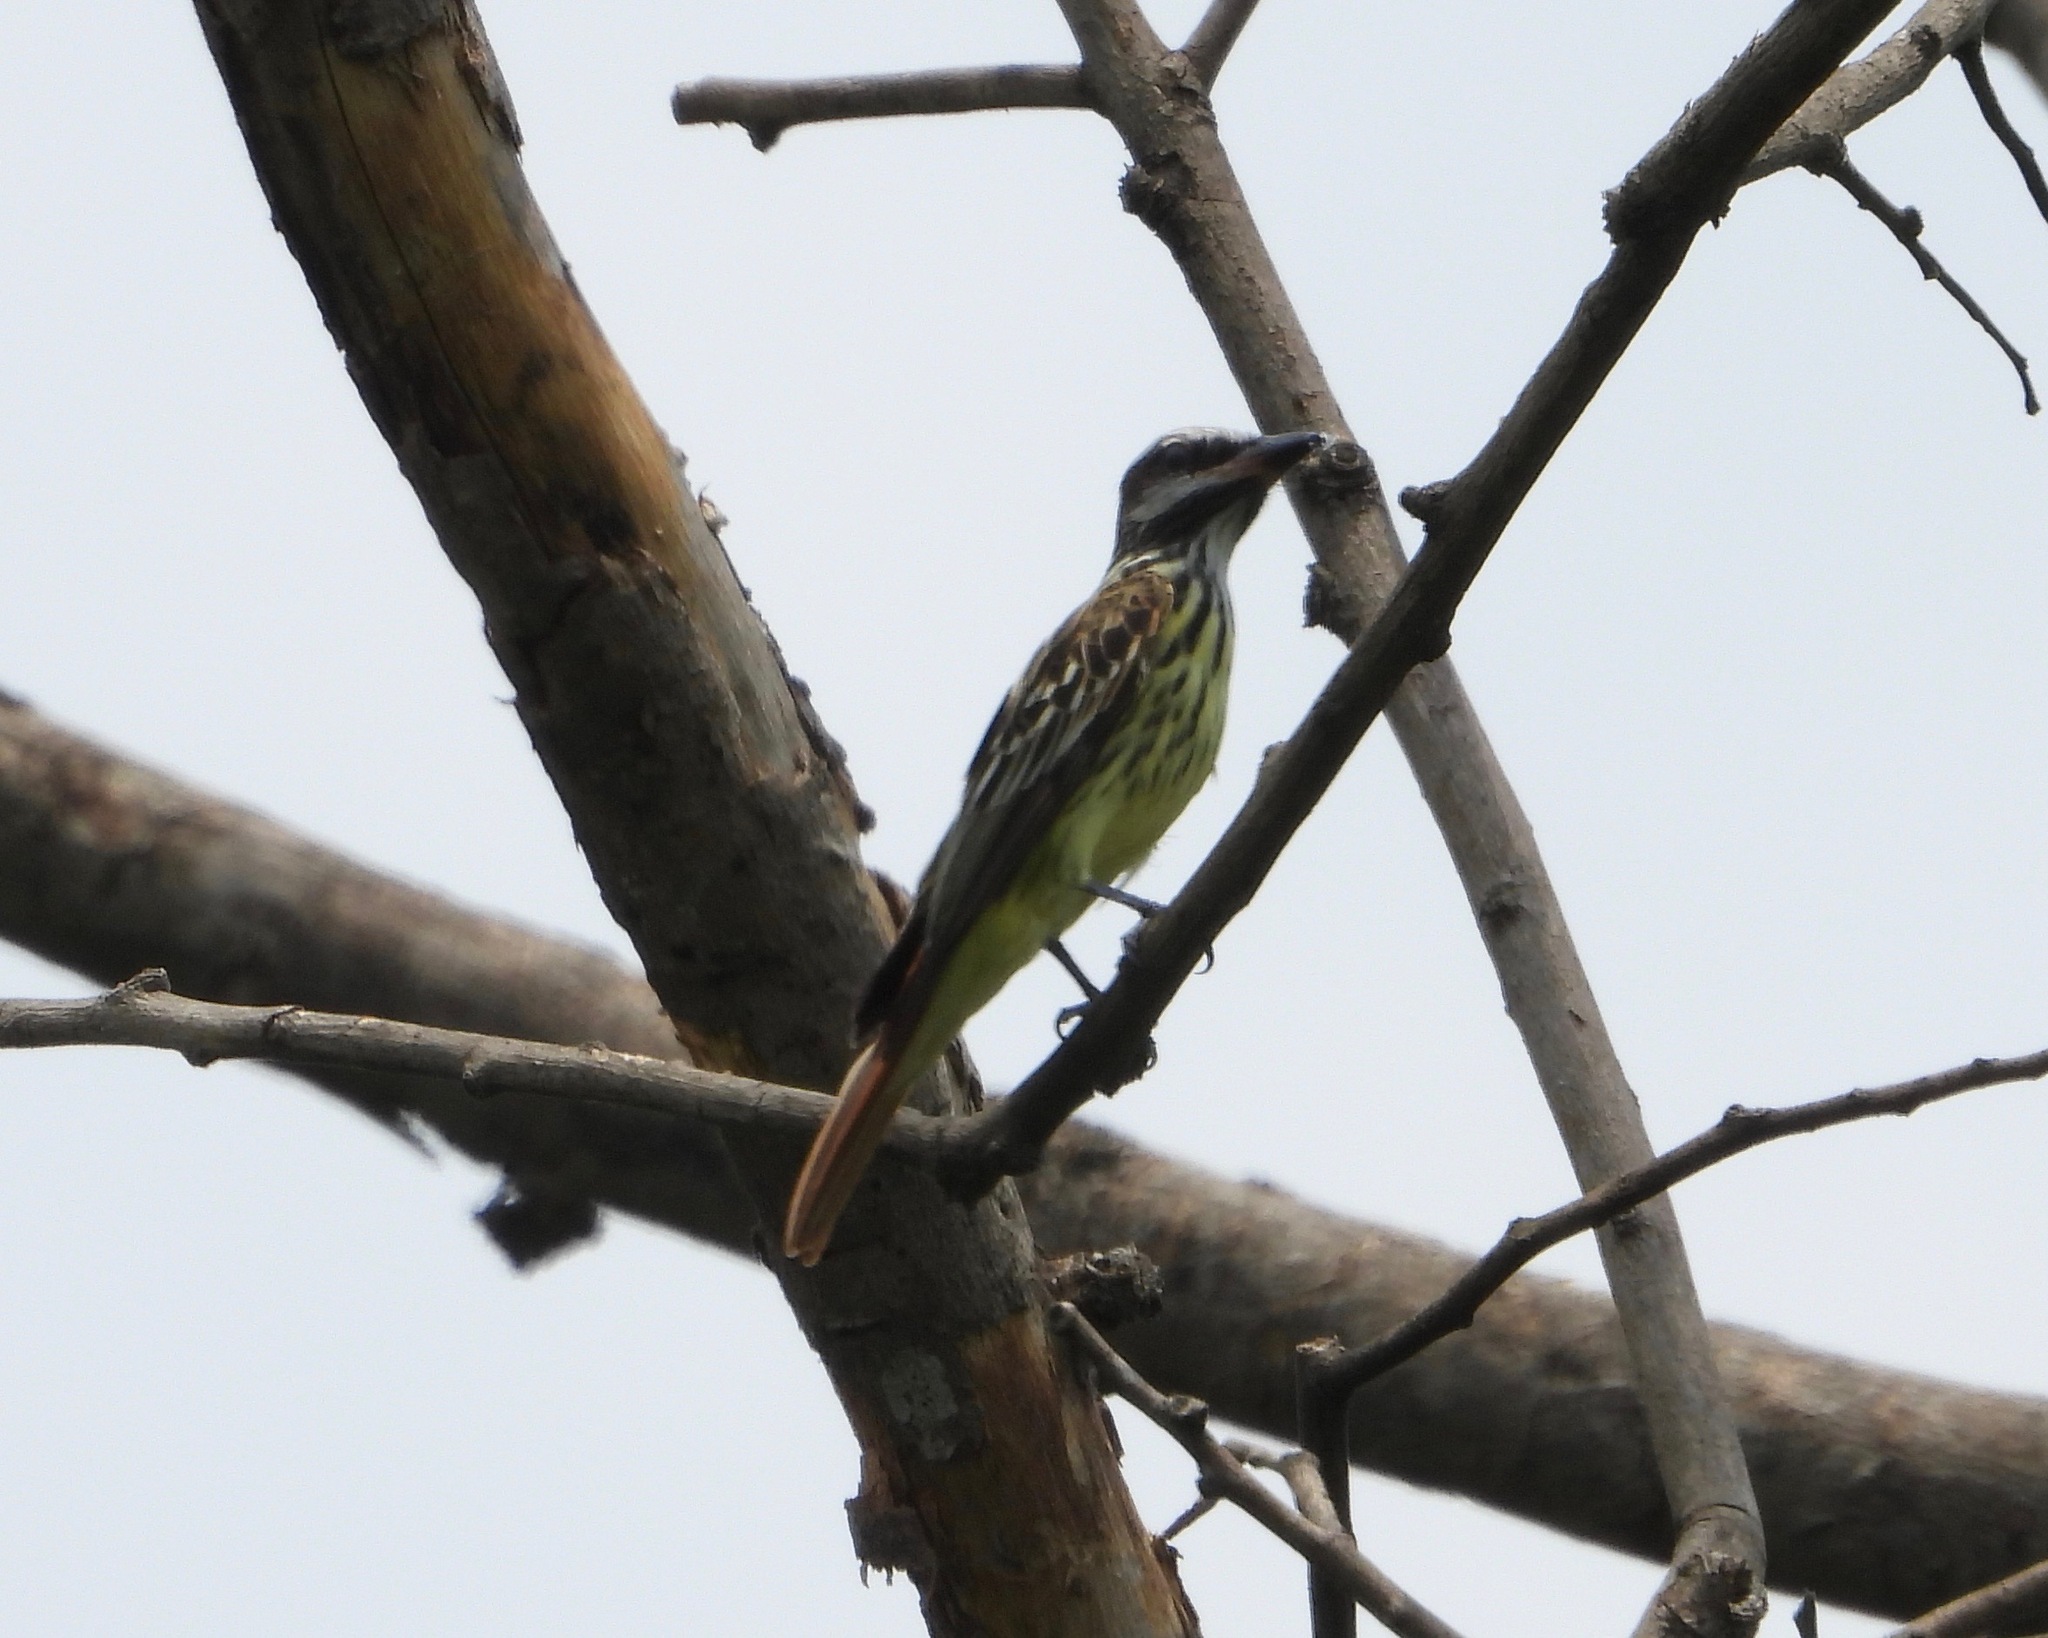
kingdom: Animalia
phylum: Chordata
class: Aves
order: Passeriformes
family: Tyrannidae
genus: Myiodynastes
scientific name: Myiodynastes luteiventris
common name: Sulphur-bellied flycatcher
